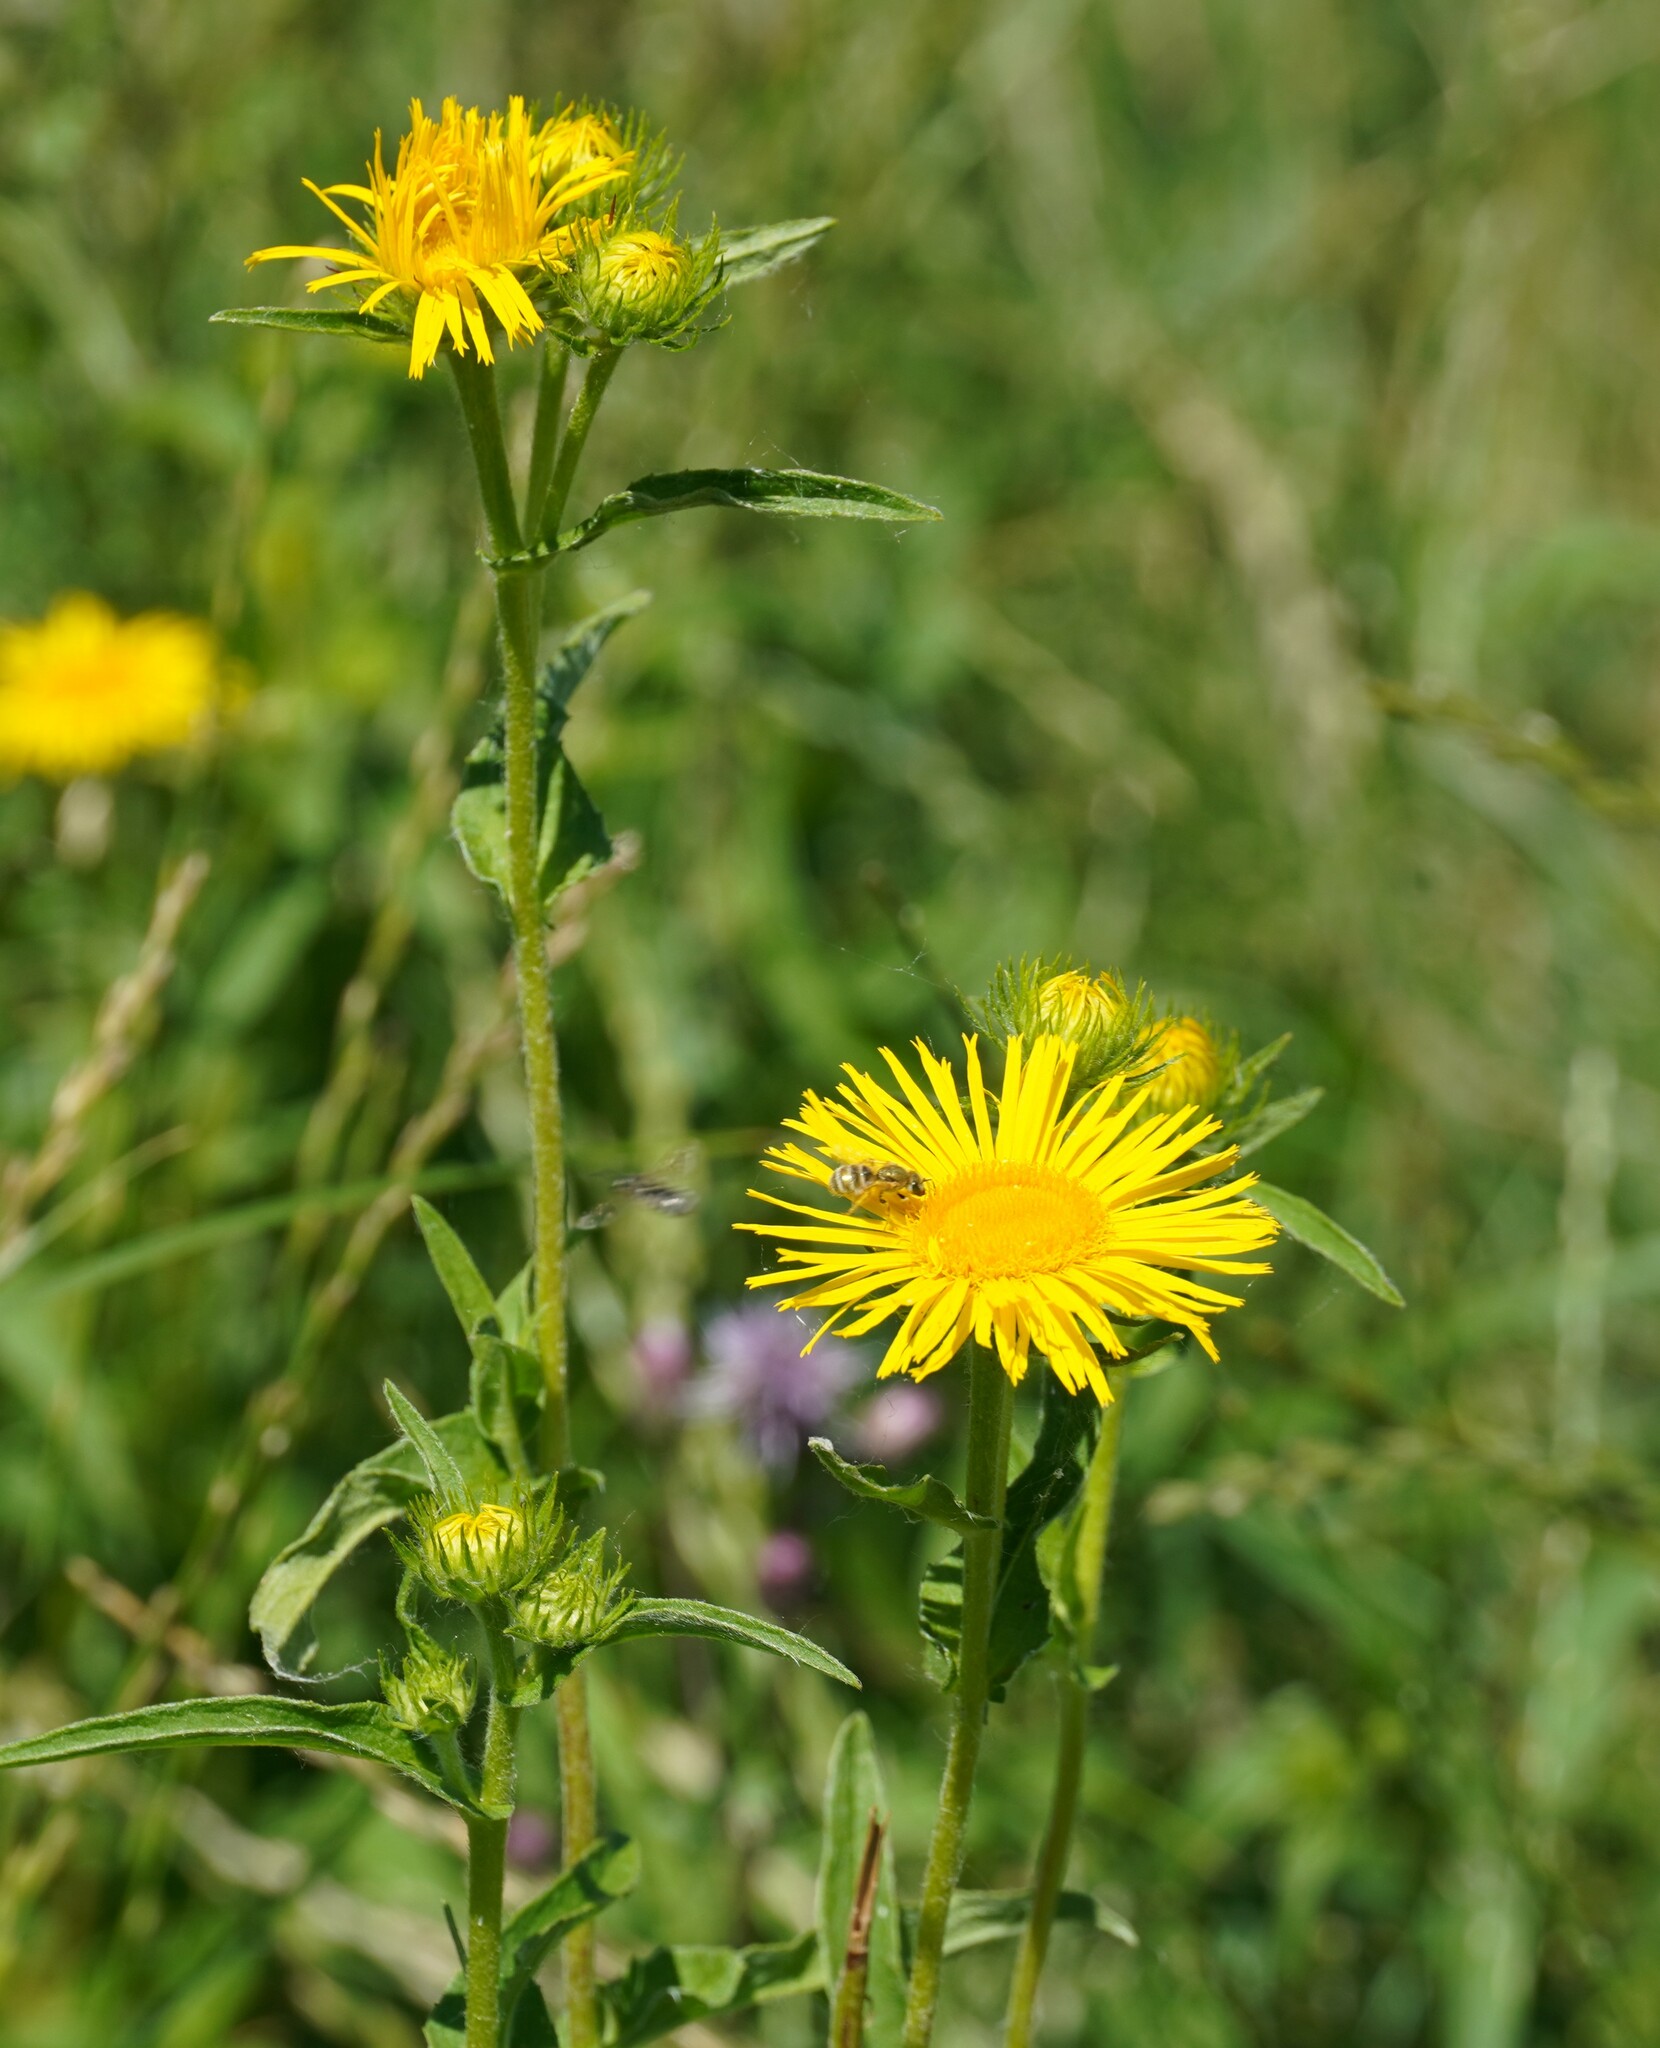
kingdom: Plantae
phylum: Tracheophyta
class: Magnoliopsida
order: Asterales
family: Asteraceae
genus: Pentanema
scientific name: Pentanema britannicum
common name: British elecampane
